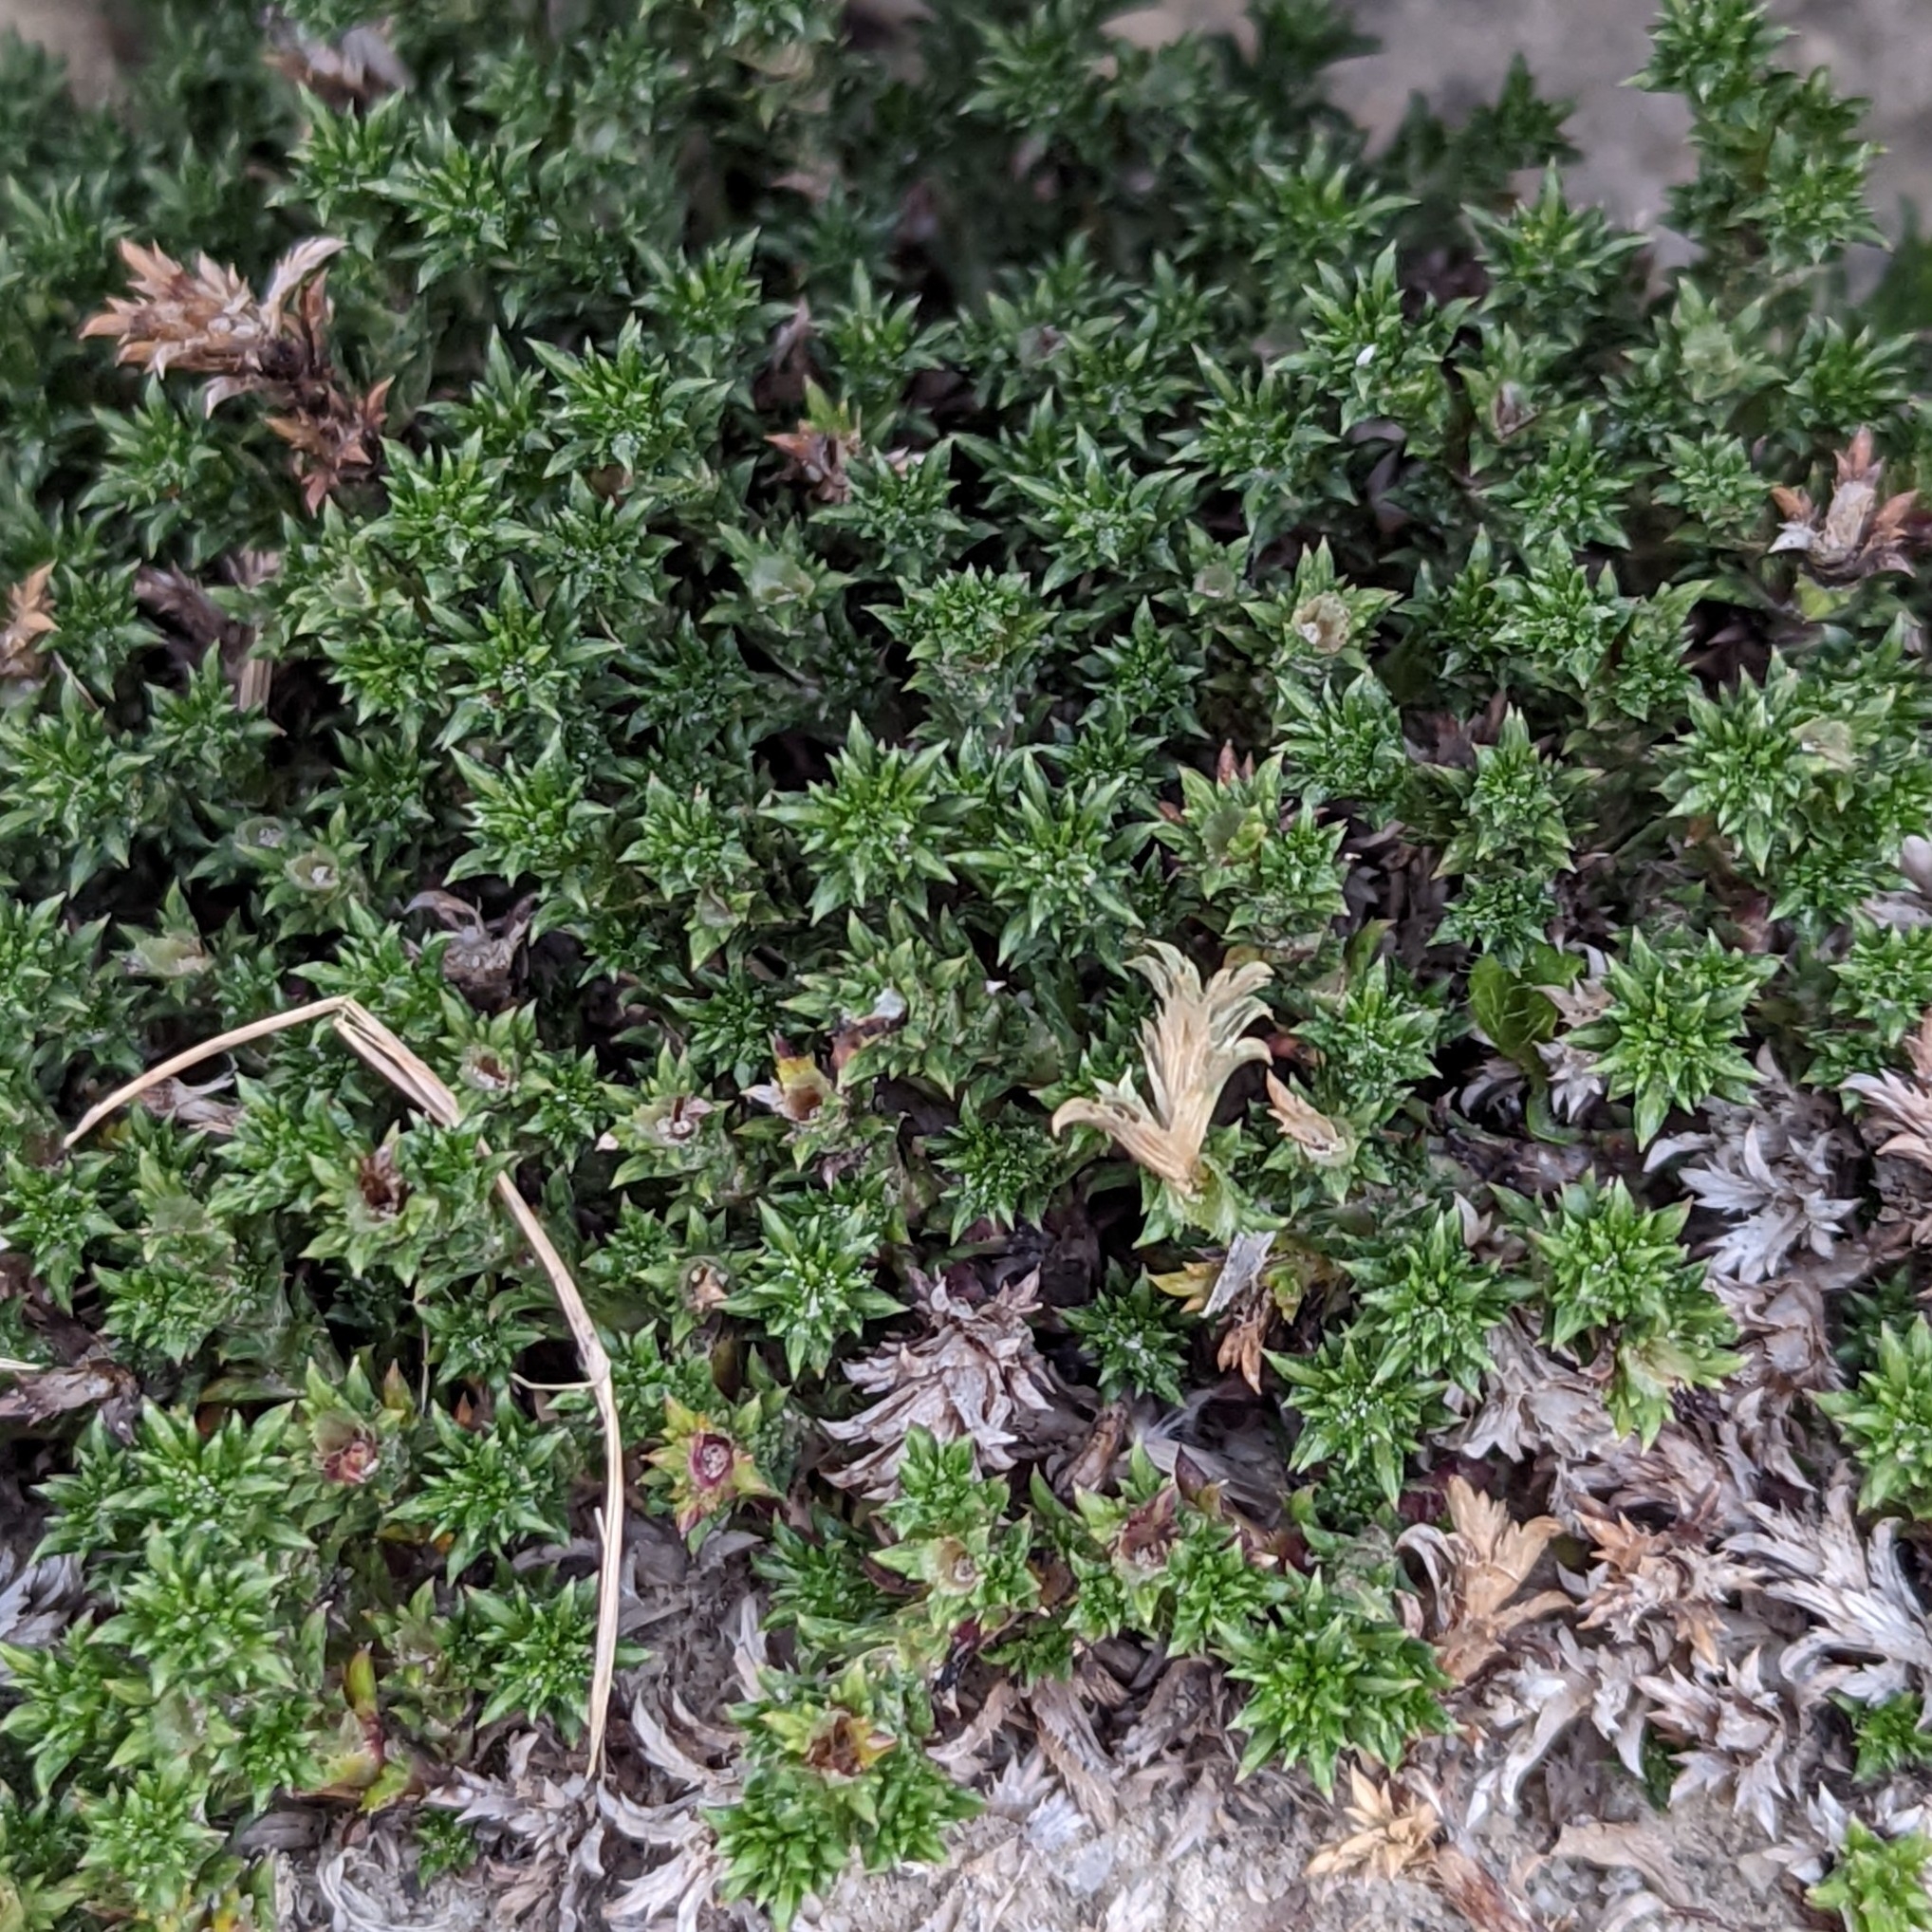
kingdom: Plantae
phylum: Tracheophyta
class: Magnoliopsida
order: Asterales
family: Asteraceae
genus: Nassauvia
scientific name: Nassauvia pygmaea
